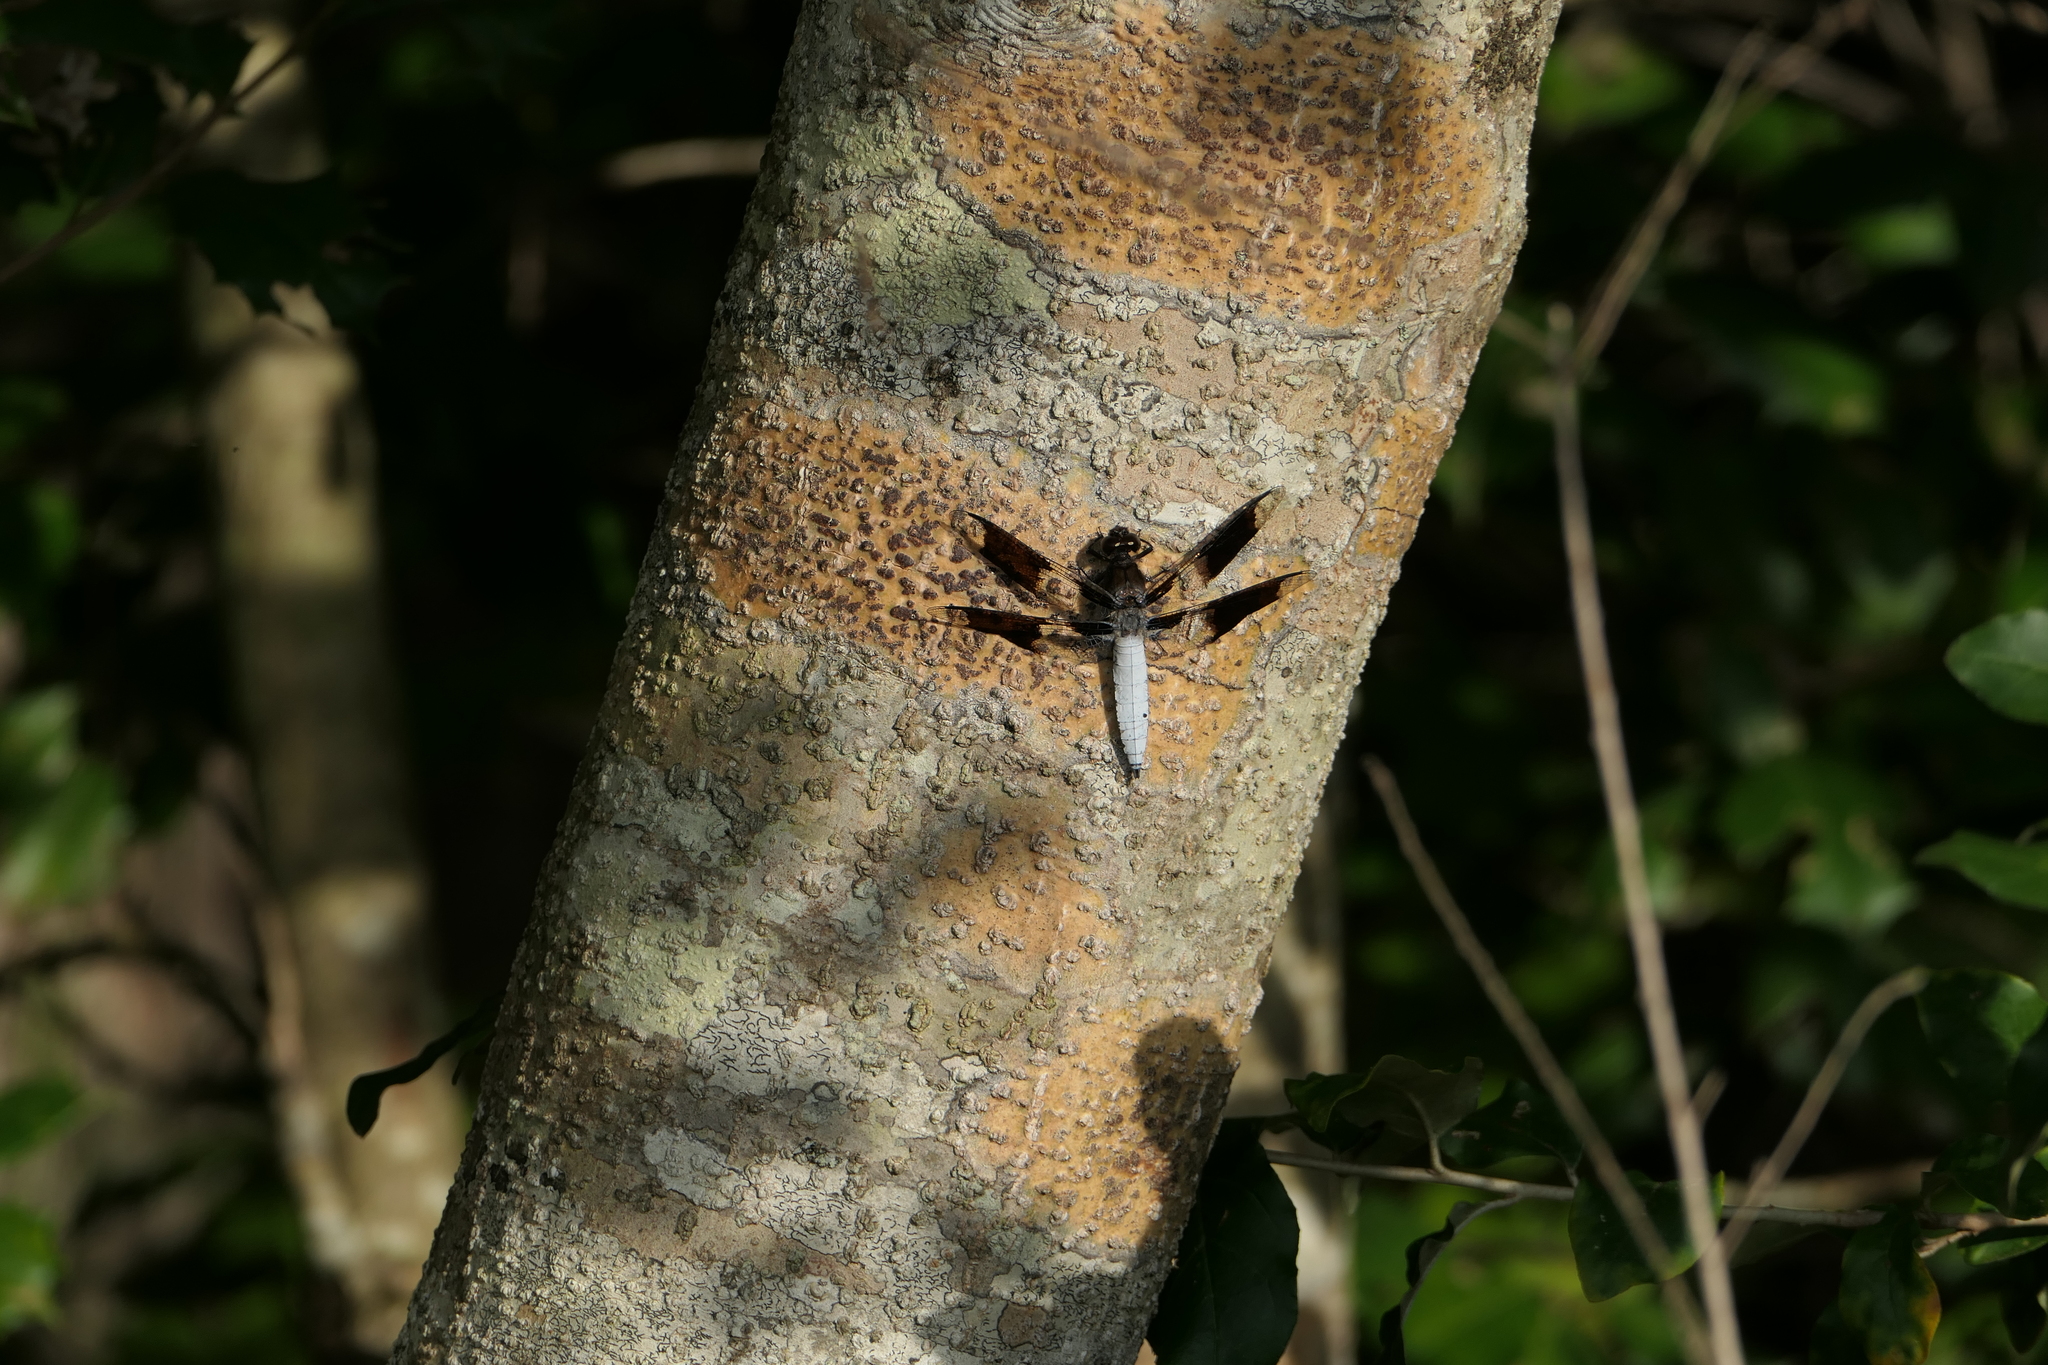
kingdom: Animalia
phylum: Arthropoda
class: Insecta
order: Odonata
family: Libellulidae
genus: Plathemis
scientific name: Plathemis lydia
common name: Common whitetail
